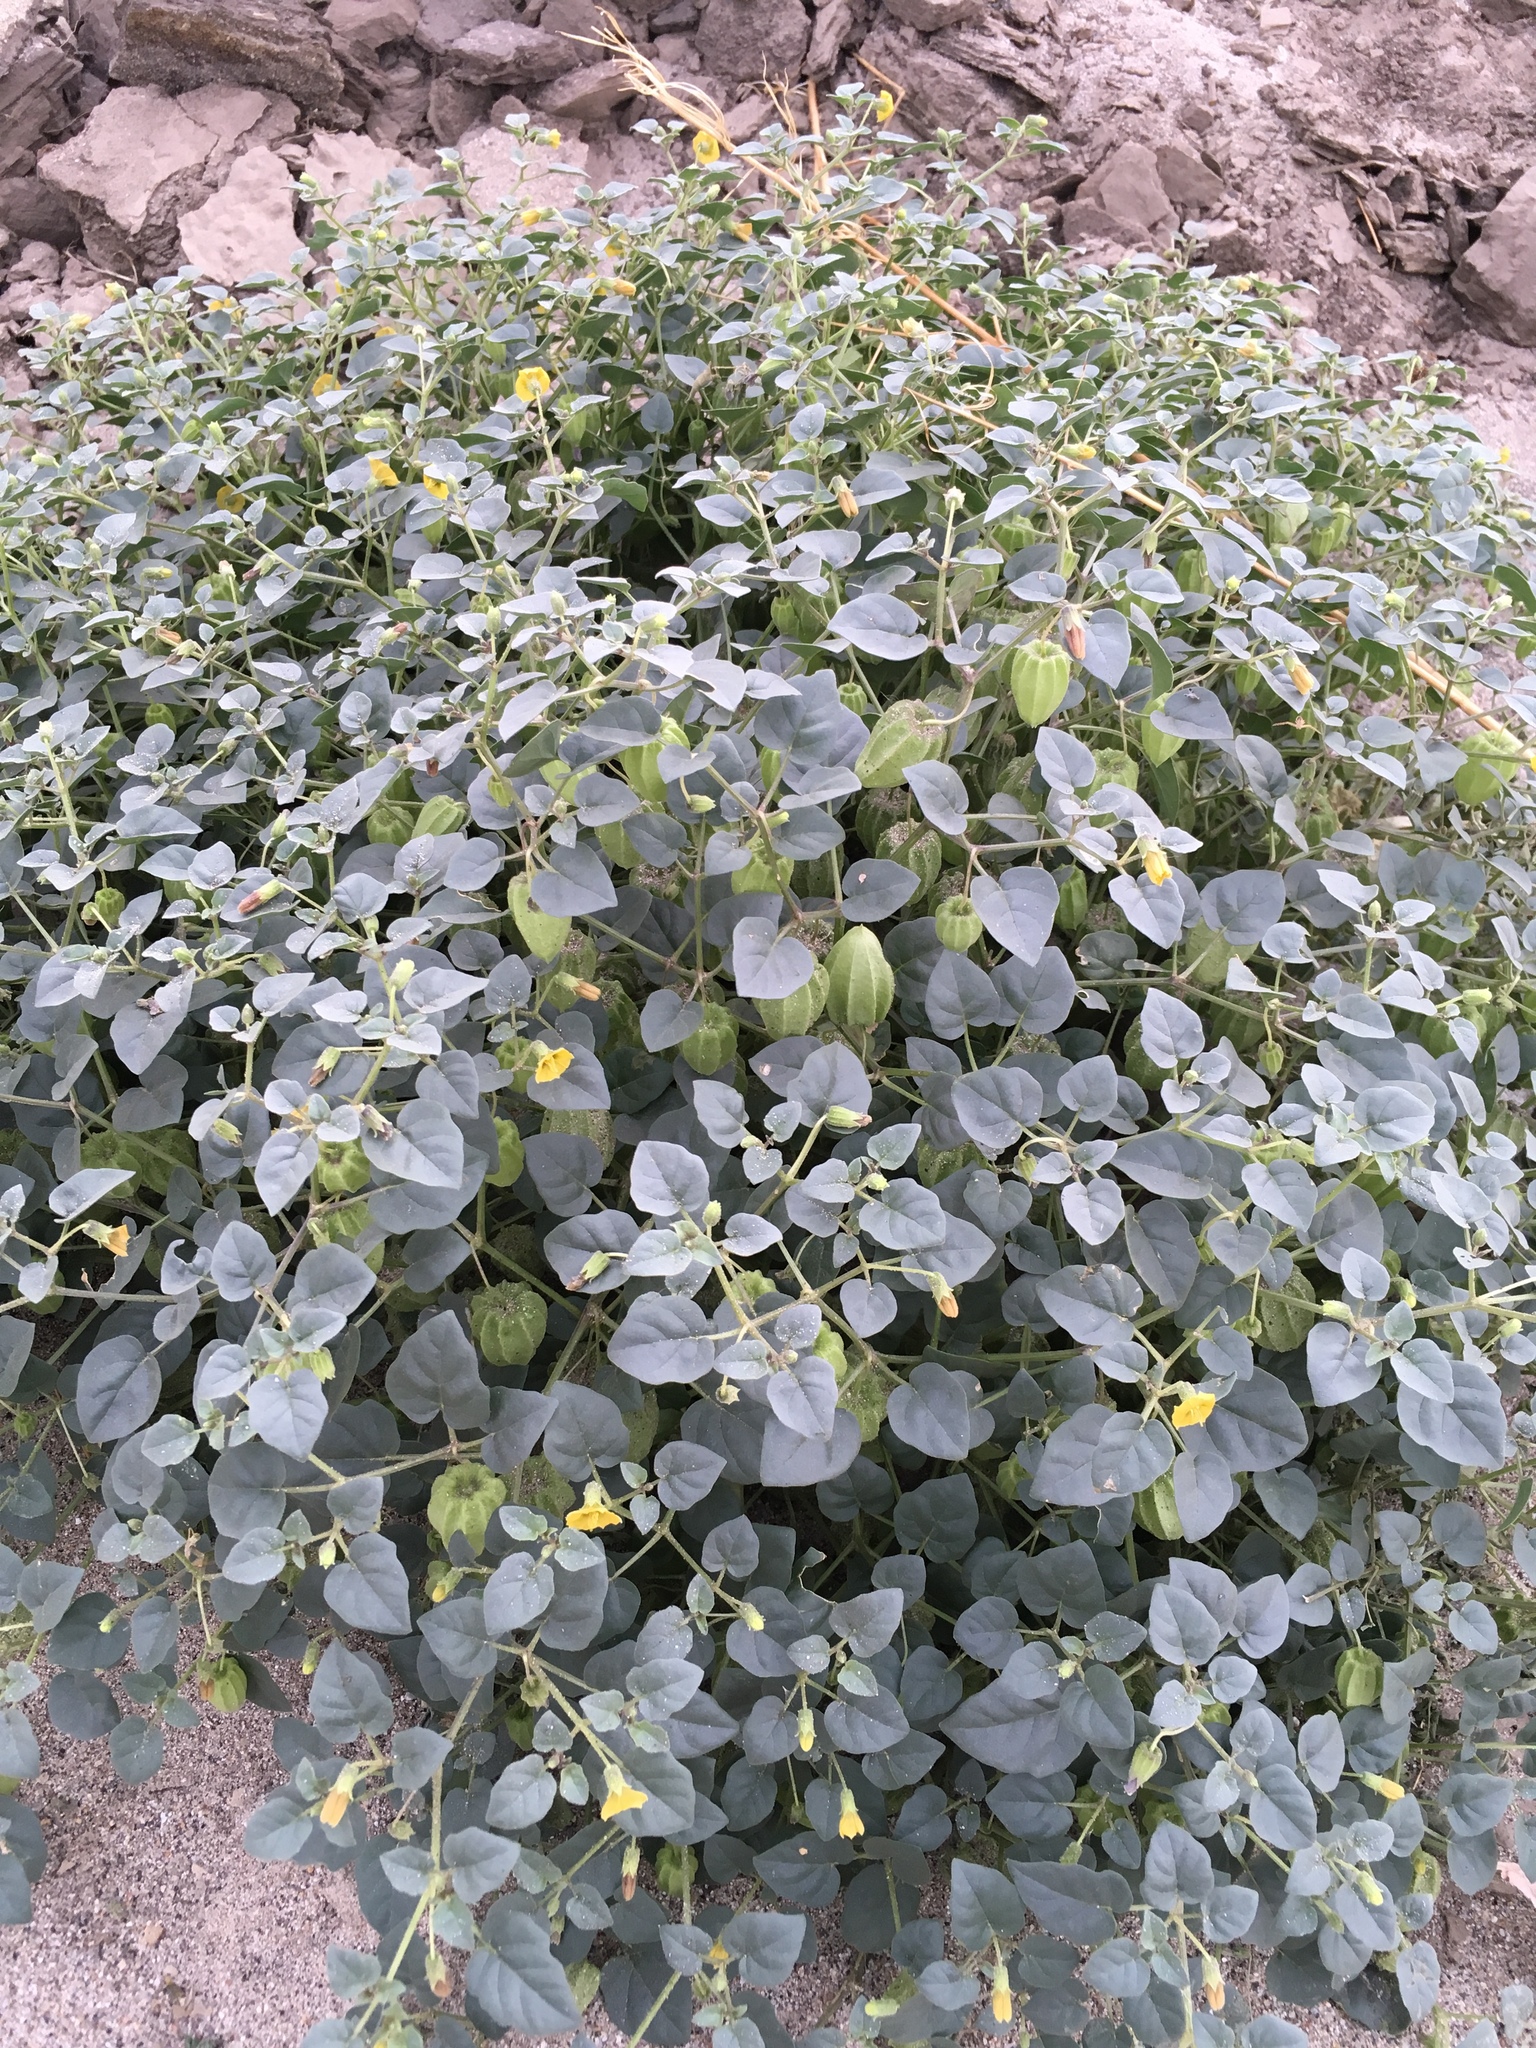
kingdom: Plantae
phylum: Tracheophyta
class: Magnoliopsida
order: Solanales
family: Solanaceae
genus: Physalis
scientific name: Physalis crassifolia
